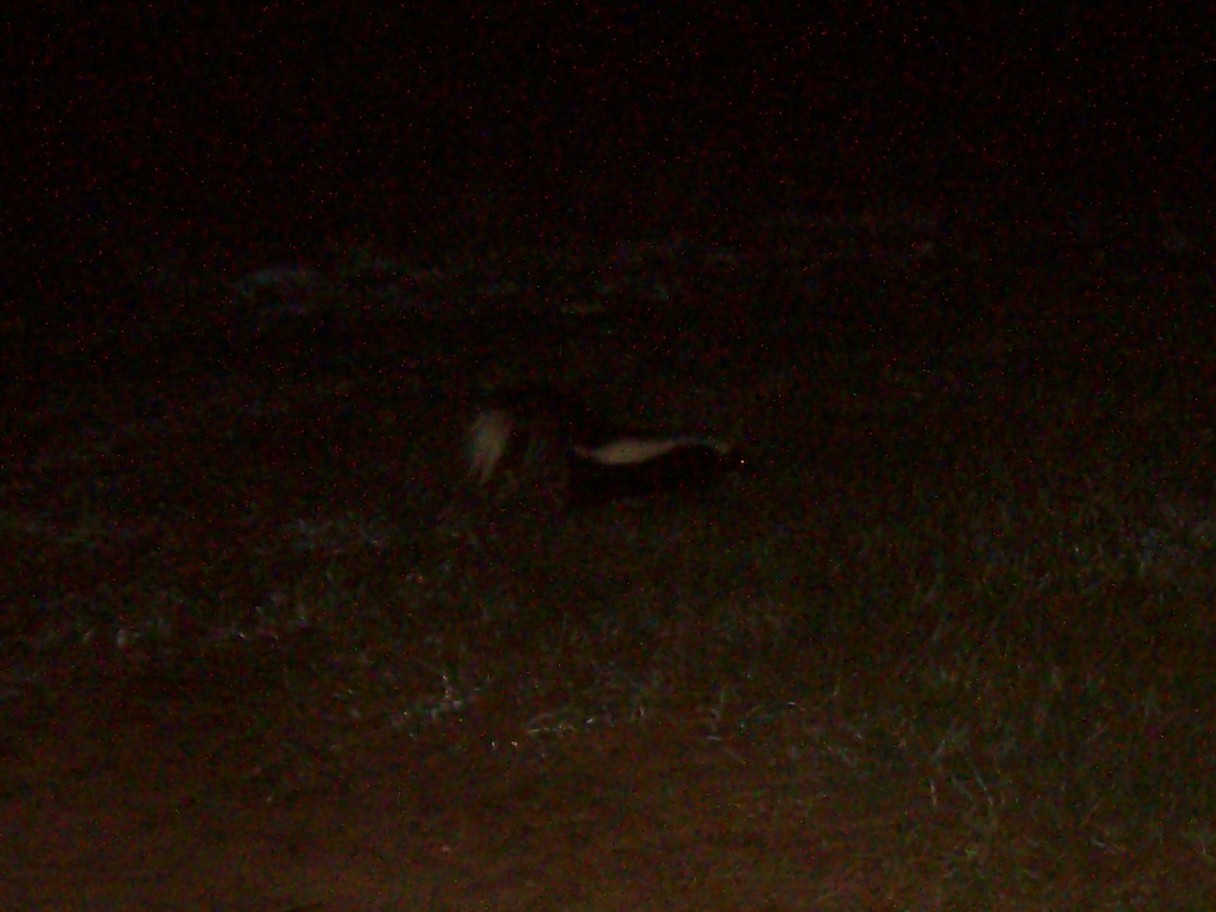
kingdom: Animalia
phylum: Chordata
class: Mammalia
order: Carnivora
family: Mephitidae
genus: Mephitis
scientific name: Mephitis mephitis
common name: Striped skunk
